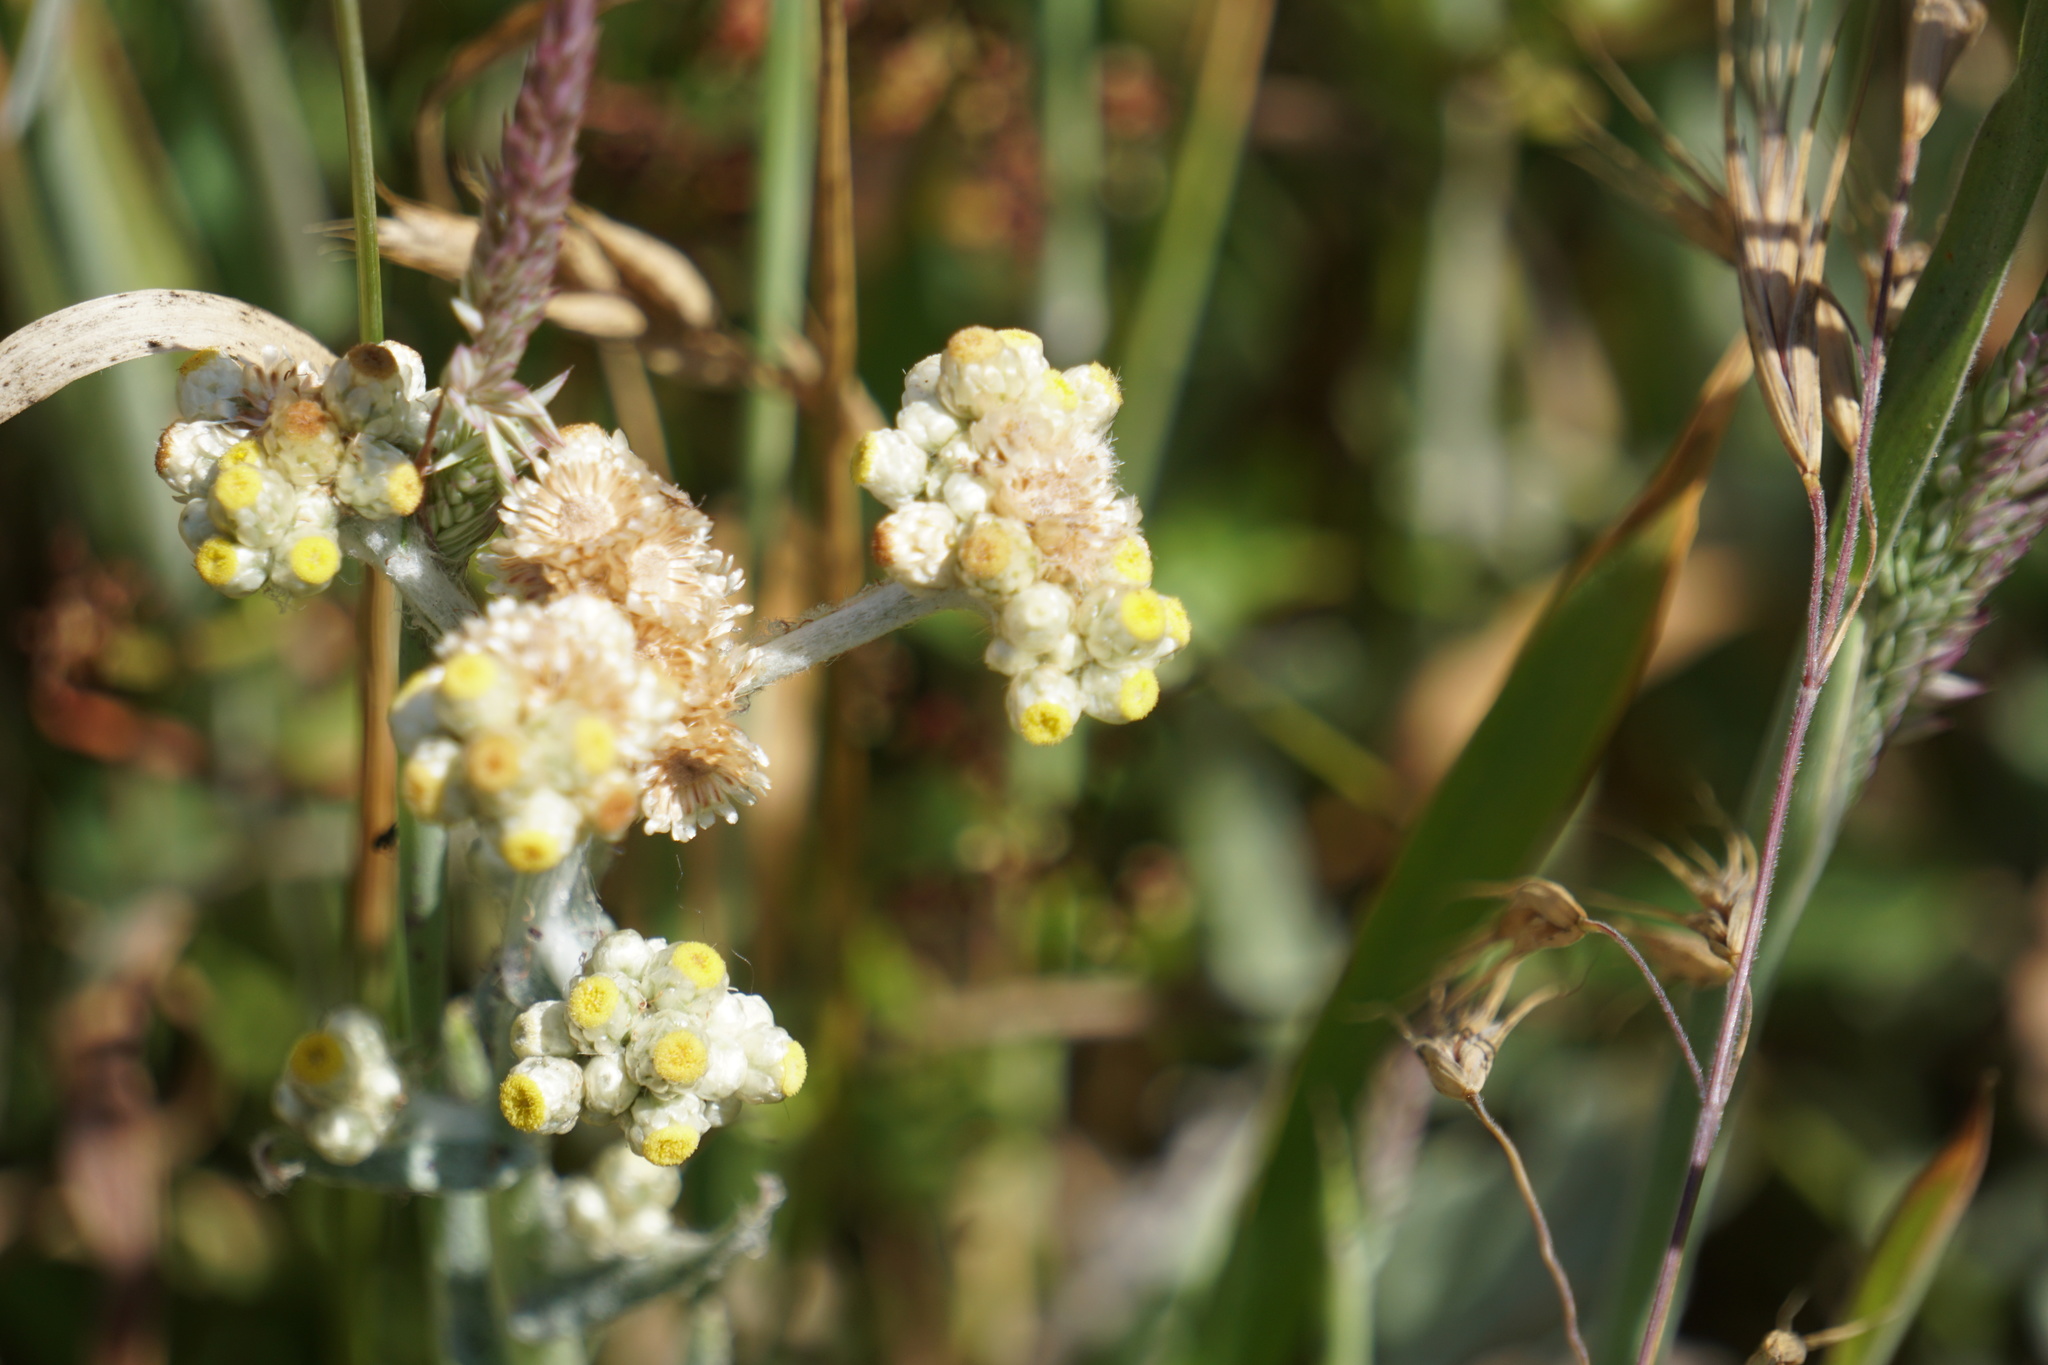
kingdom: Plantae
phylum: Tracheophyta
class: Magnoliopsida
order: Asterales
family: Asteraceae
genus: Pseudognaphalium
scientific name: Pseudognaphalium stramineum
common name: Cotton-batting-plant
